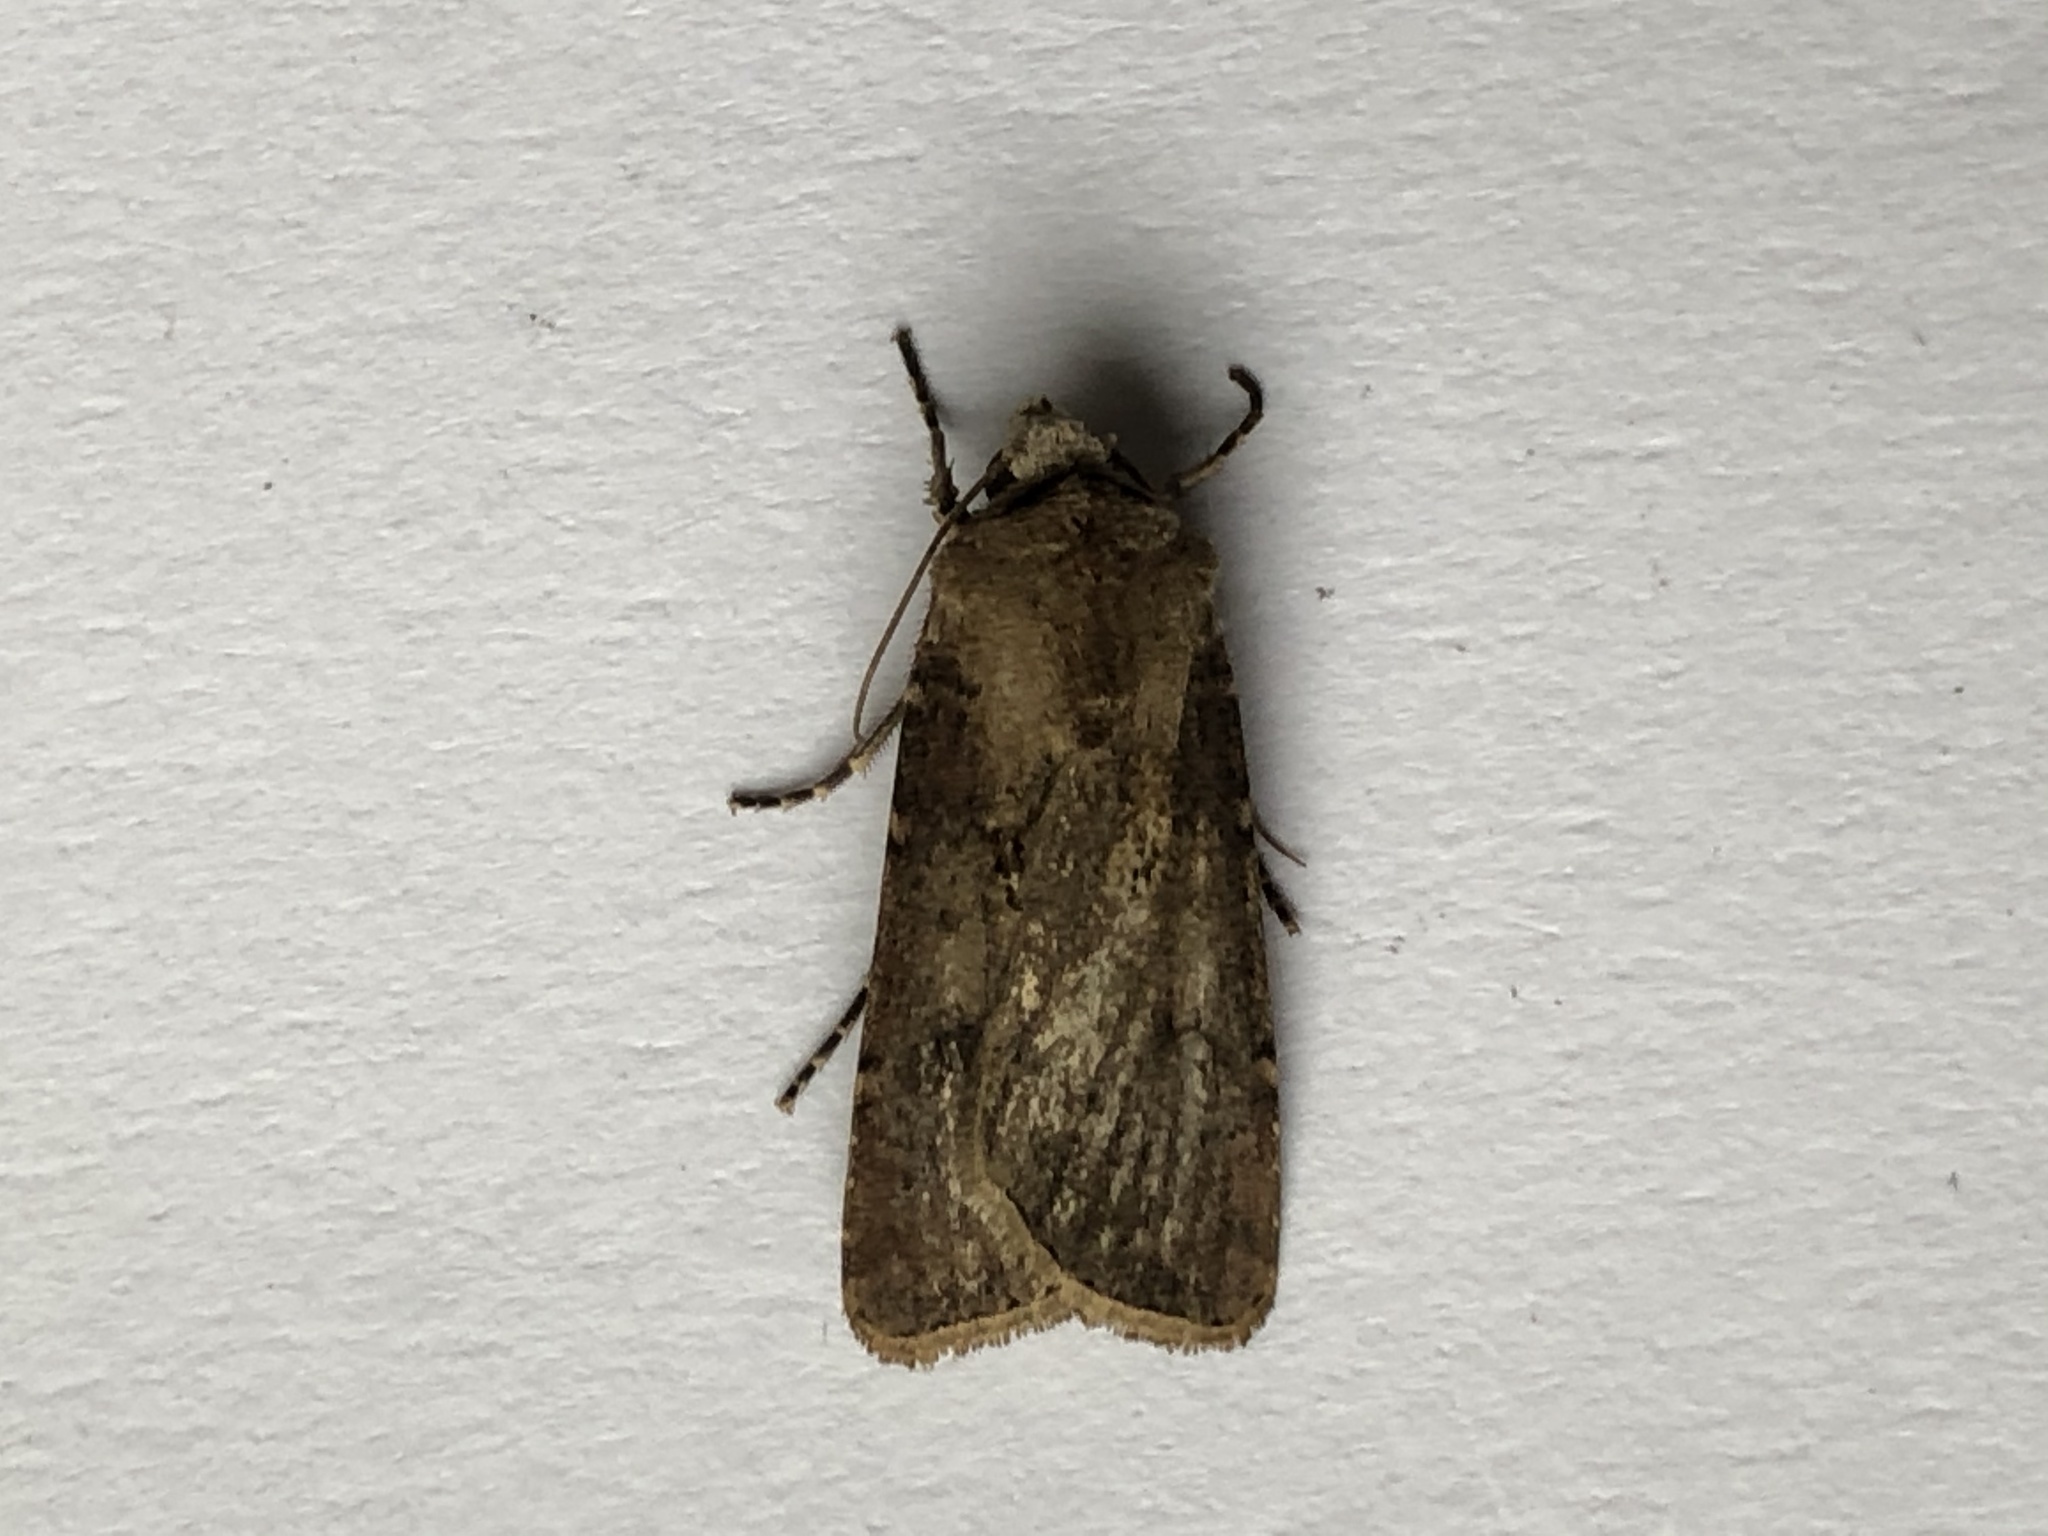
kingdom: Animalia
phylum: Arthropoda
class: Insecta
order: Lepidoptera
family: Noctuidae
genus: Agrotis
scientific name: Agrotis segetum
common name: Turnip moth
